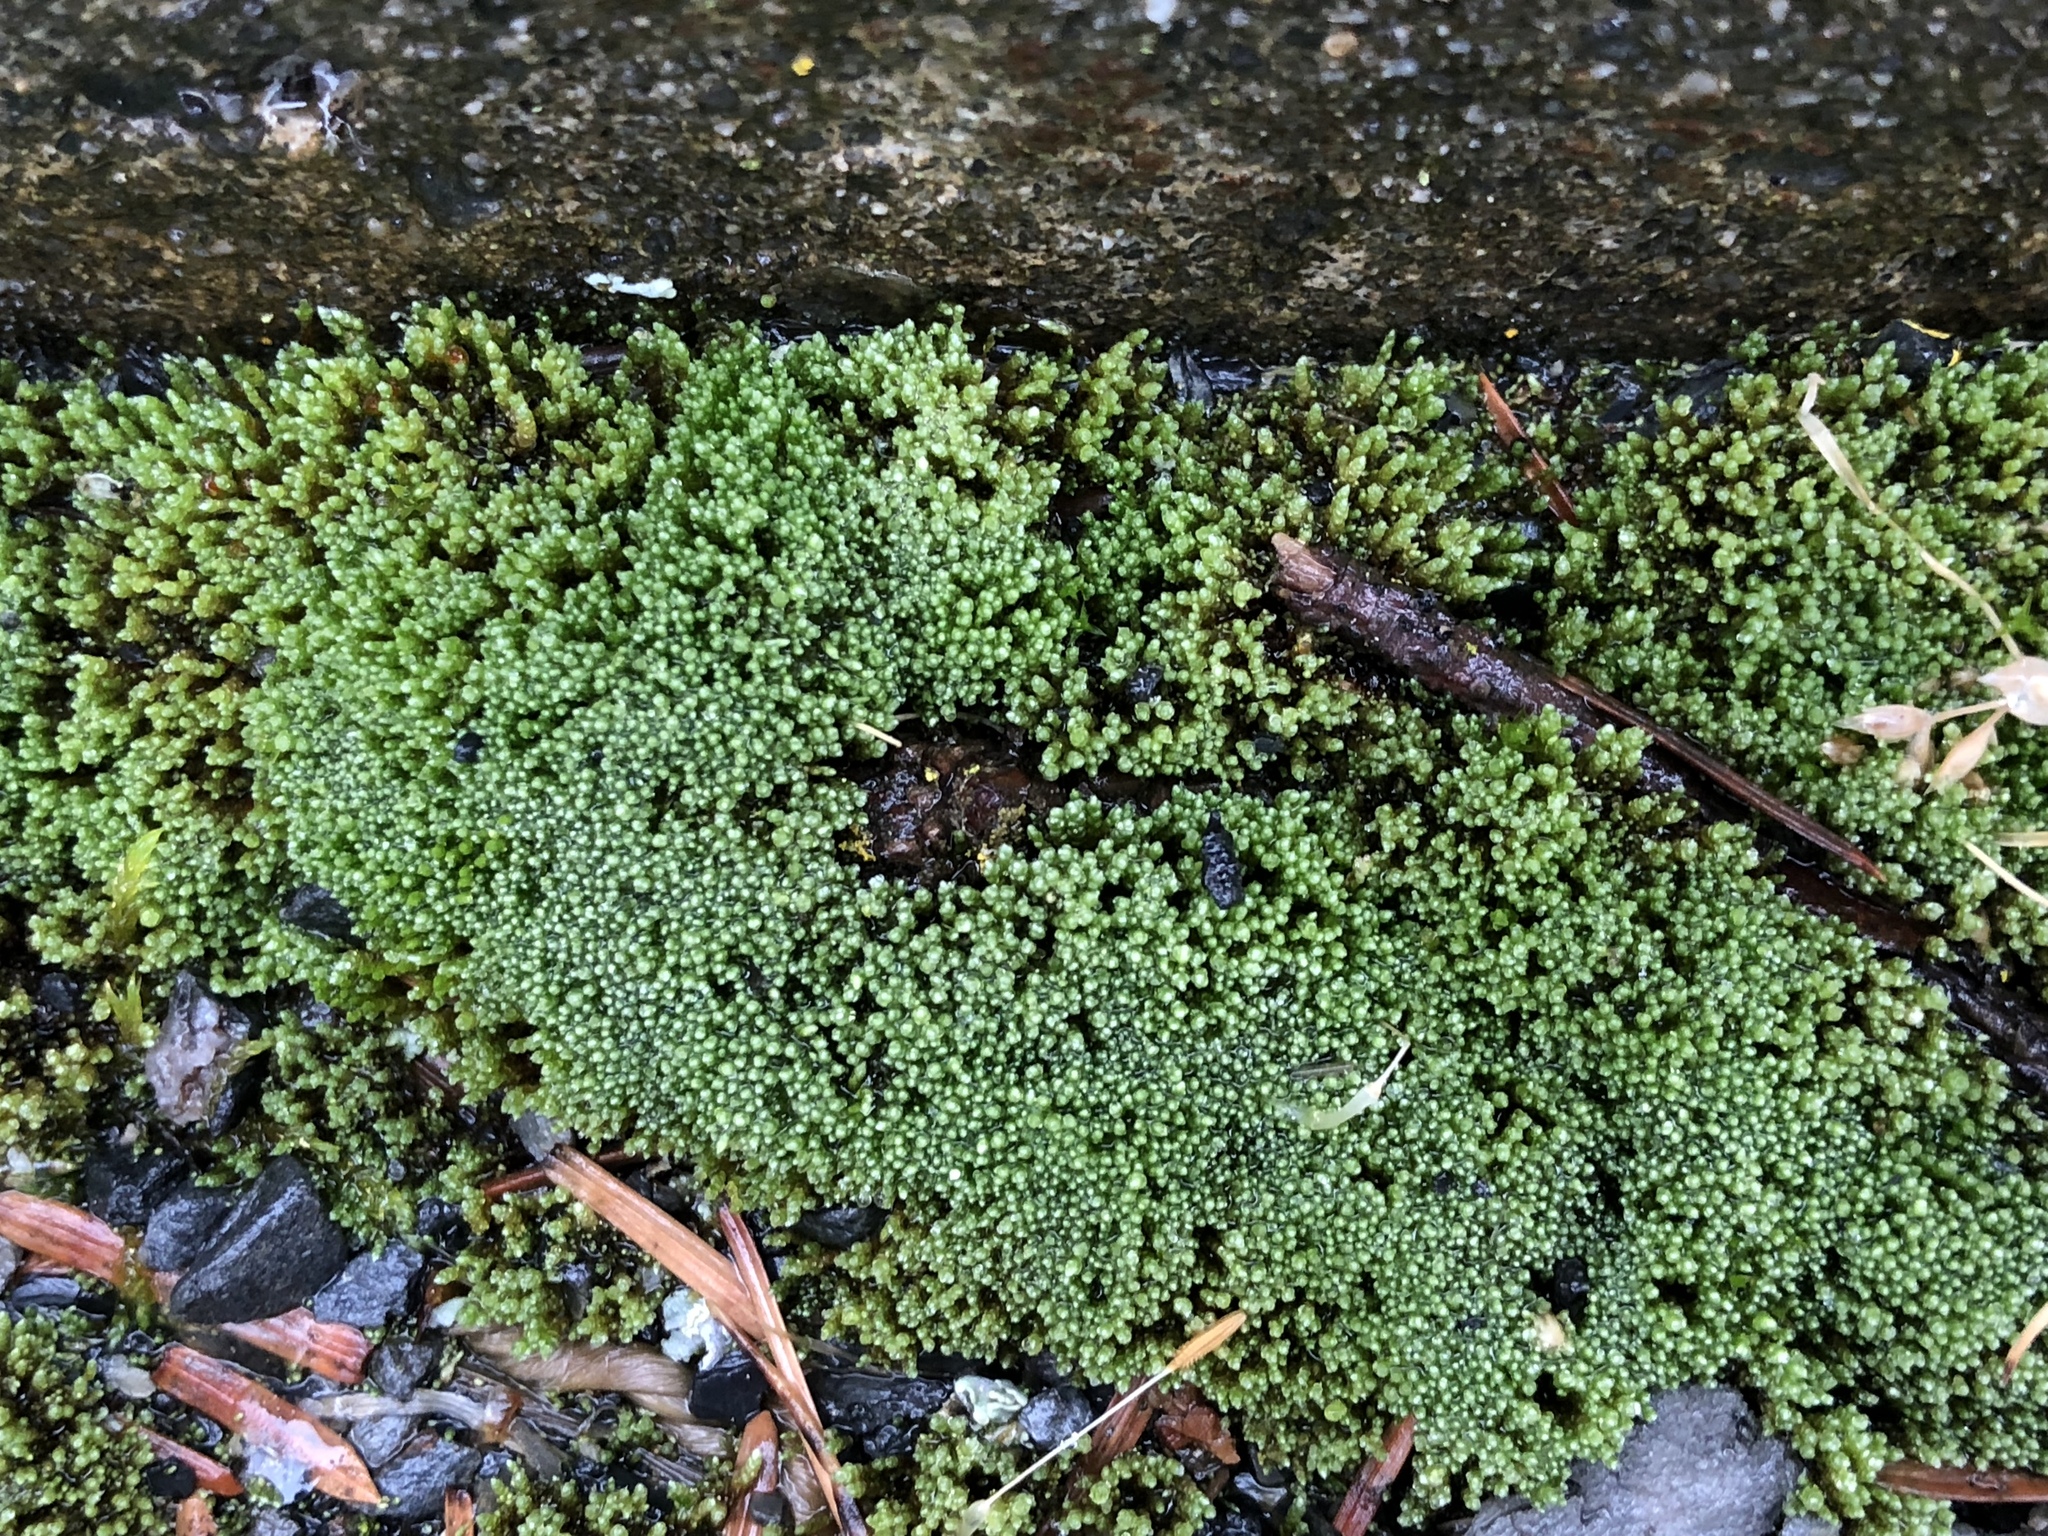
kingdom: Plantae
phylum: Bryophyta
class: Bryopsida
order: Bryales
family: Bryaceae
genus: Bryum
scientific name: Bryum argenteum
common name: Silver-moss
